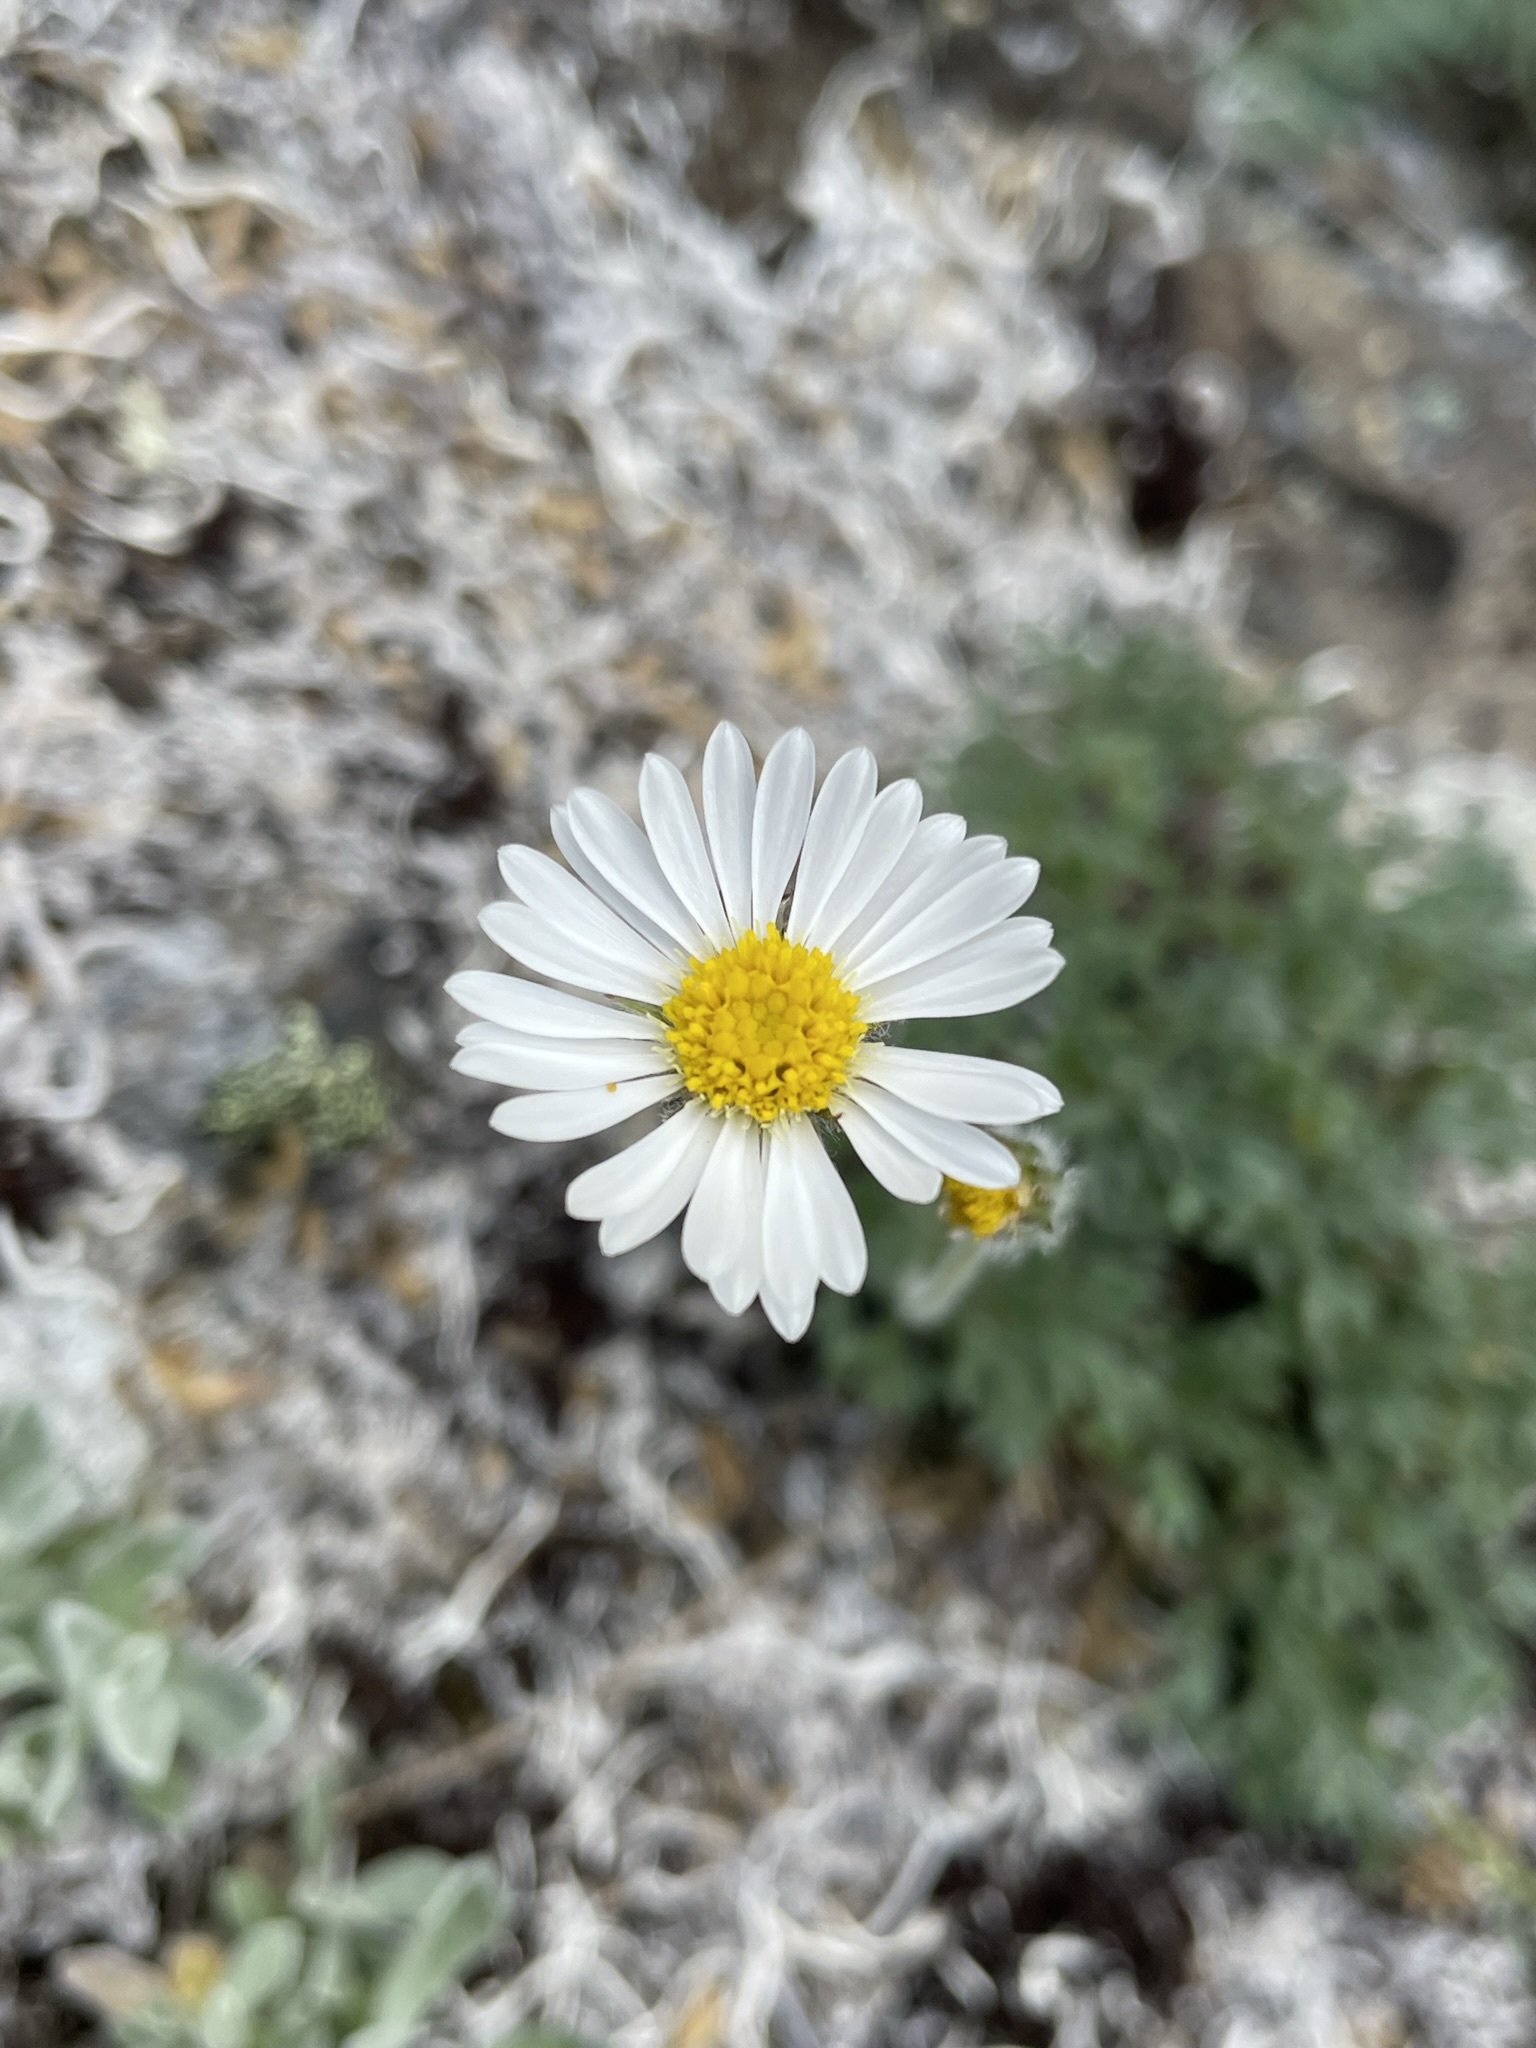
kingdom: Plantae
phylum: Tracheophyta
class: Magnoliopsida
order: Asterales
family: Asteraceae
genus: Erigeron
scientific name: Erigeron compositus
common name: Dwarf mountain fleabane
